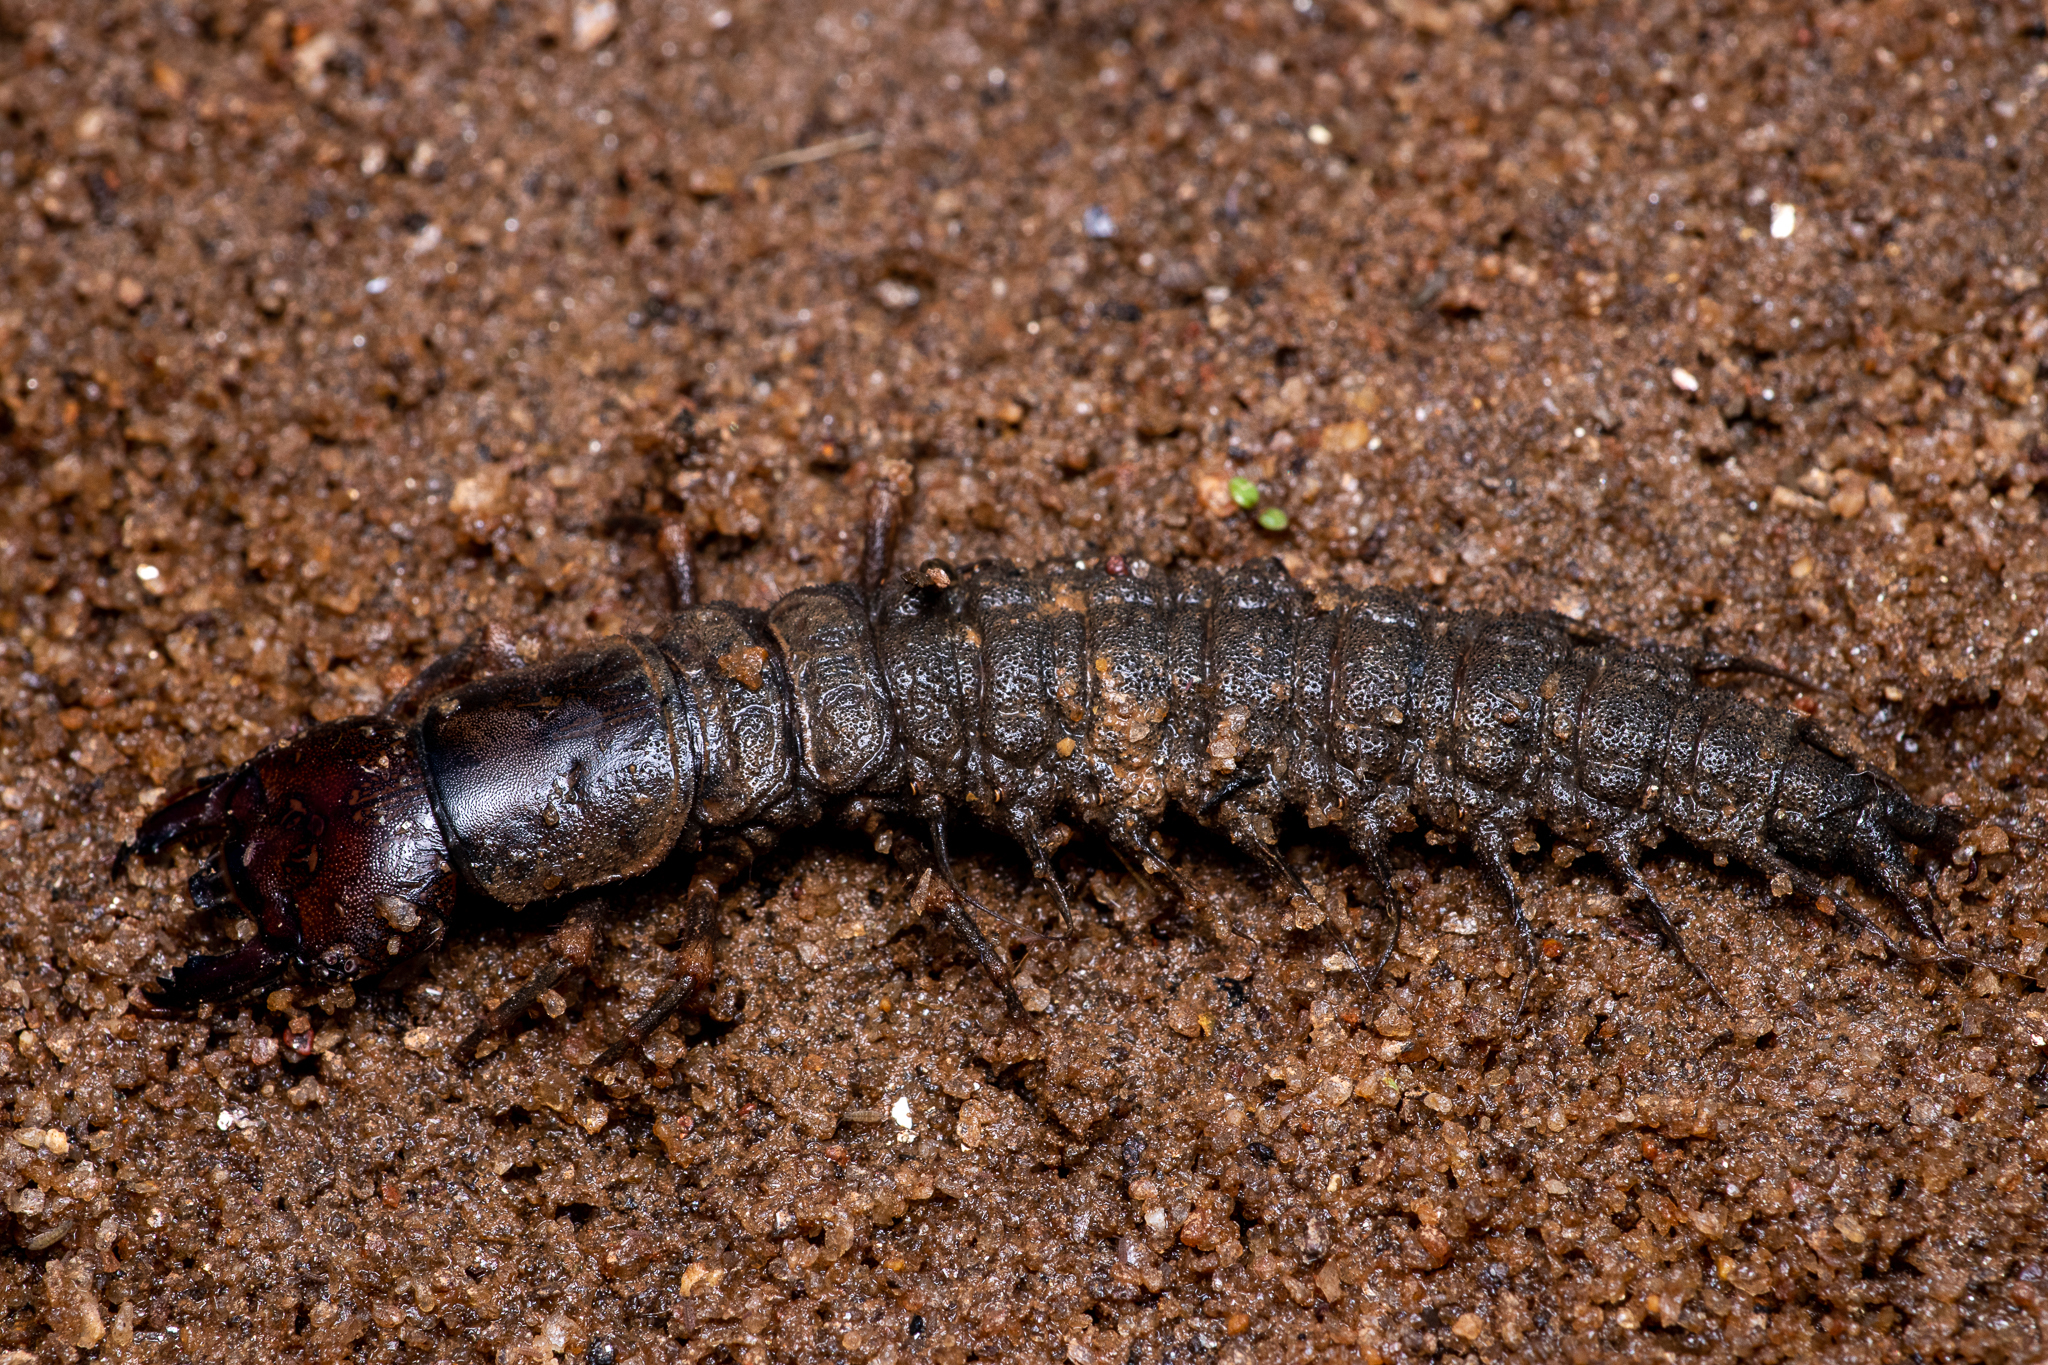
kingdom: Animalia
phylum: Arthropoda
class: Insecta
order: Megaloptera
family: Corydalidae
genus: Corydalus
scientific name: Corydalus cornutus
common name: Dobsonfly
